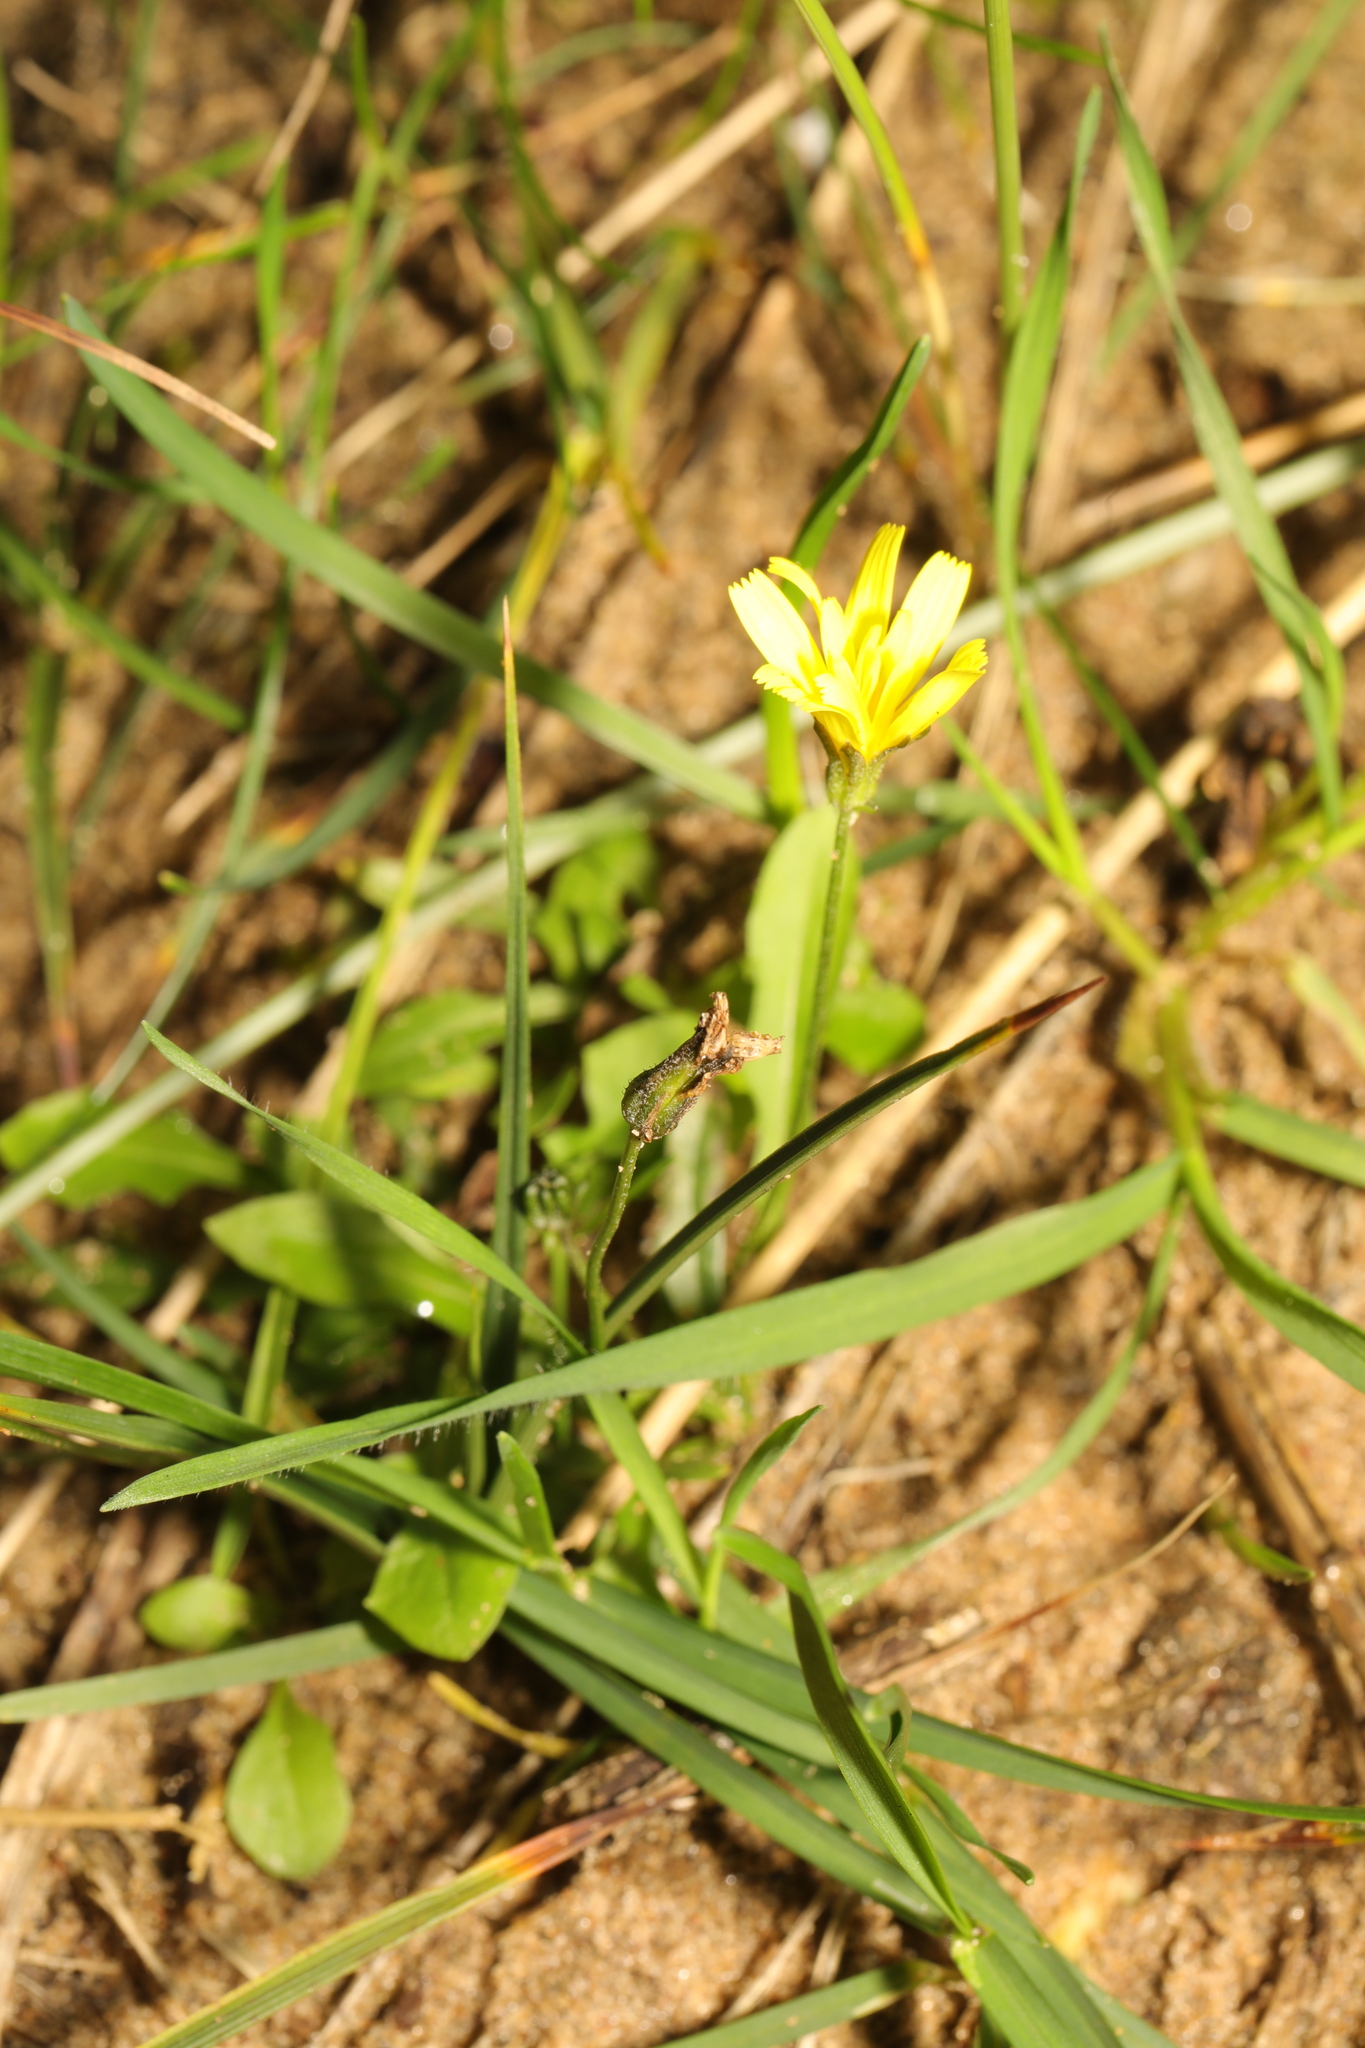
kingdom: Plantae
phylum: Tracheophyta
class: Magnoliopsida
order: Asterales
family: Asteraceae
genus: Lapsana
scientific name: Lapsana communis
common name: Nipplewort
